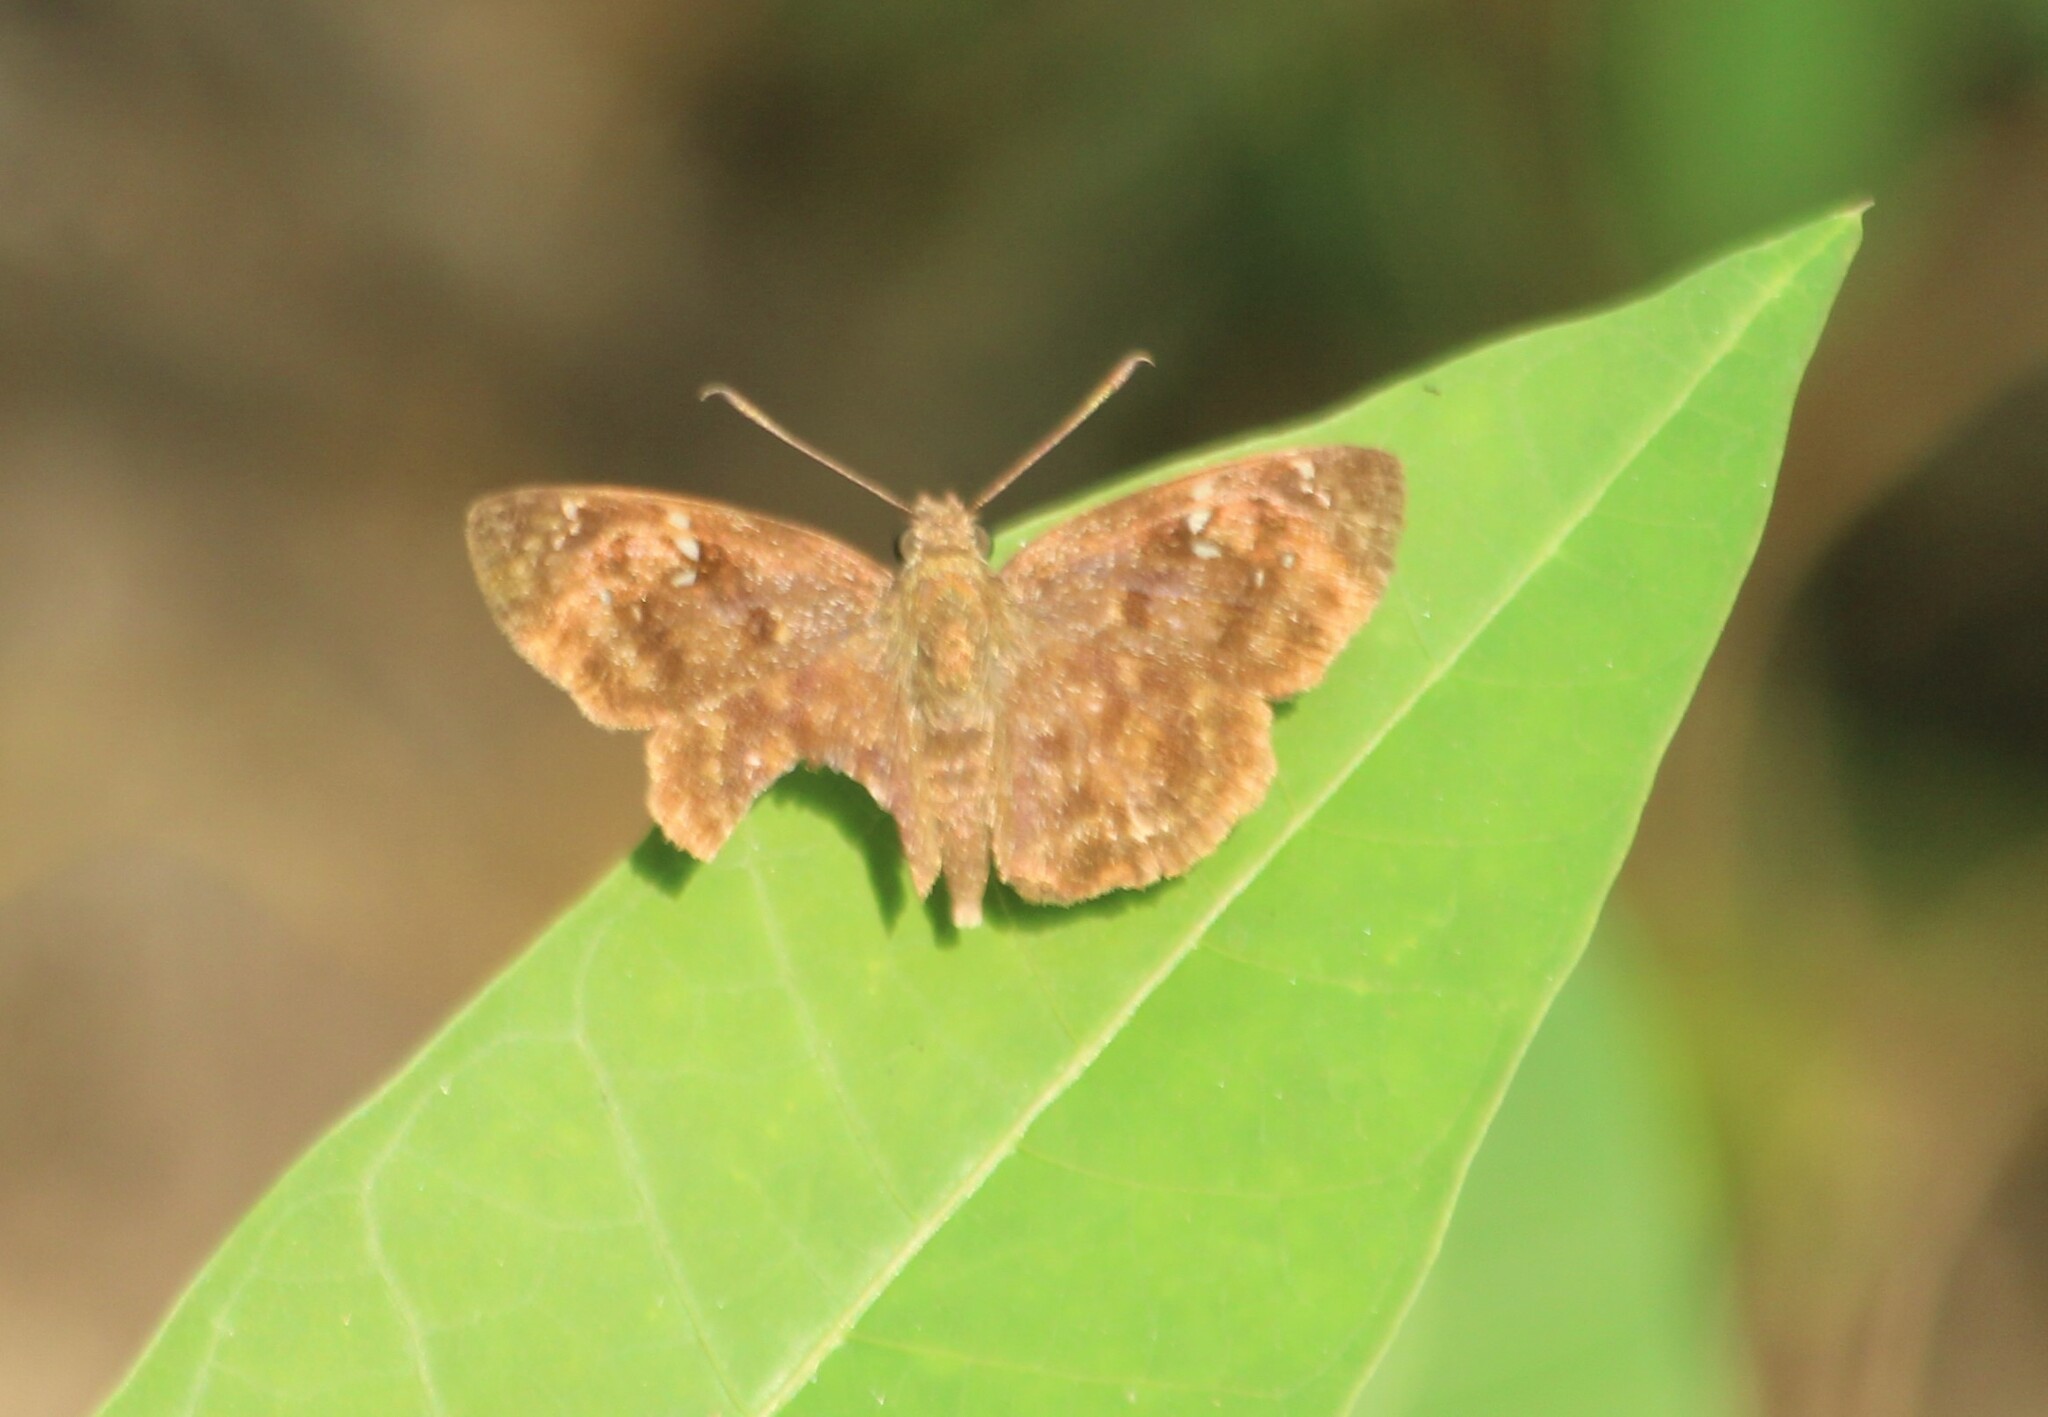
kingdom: Animalia
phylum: Arthropoda
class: Insecta
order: Lepidoptera
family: Hesperiidae
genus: Sarangesa
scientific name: Sarangesa dasahara
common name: Common small flat
